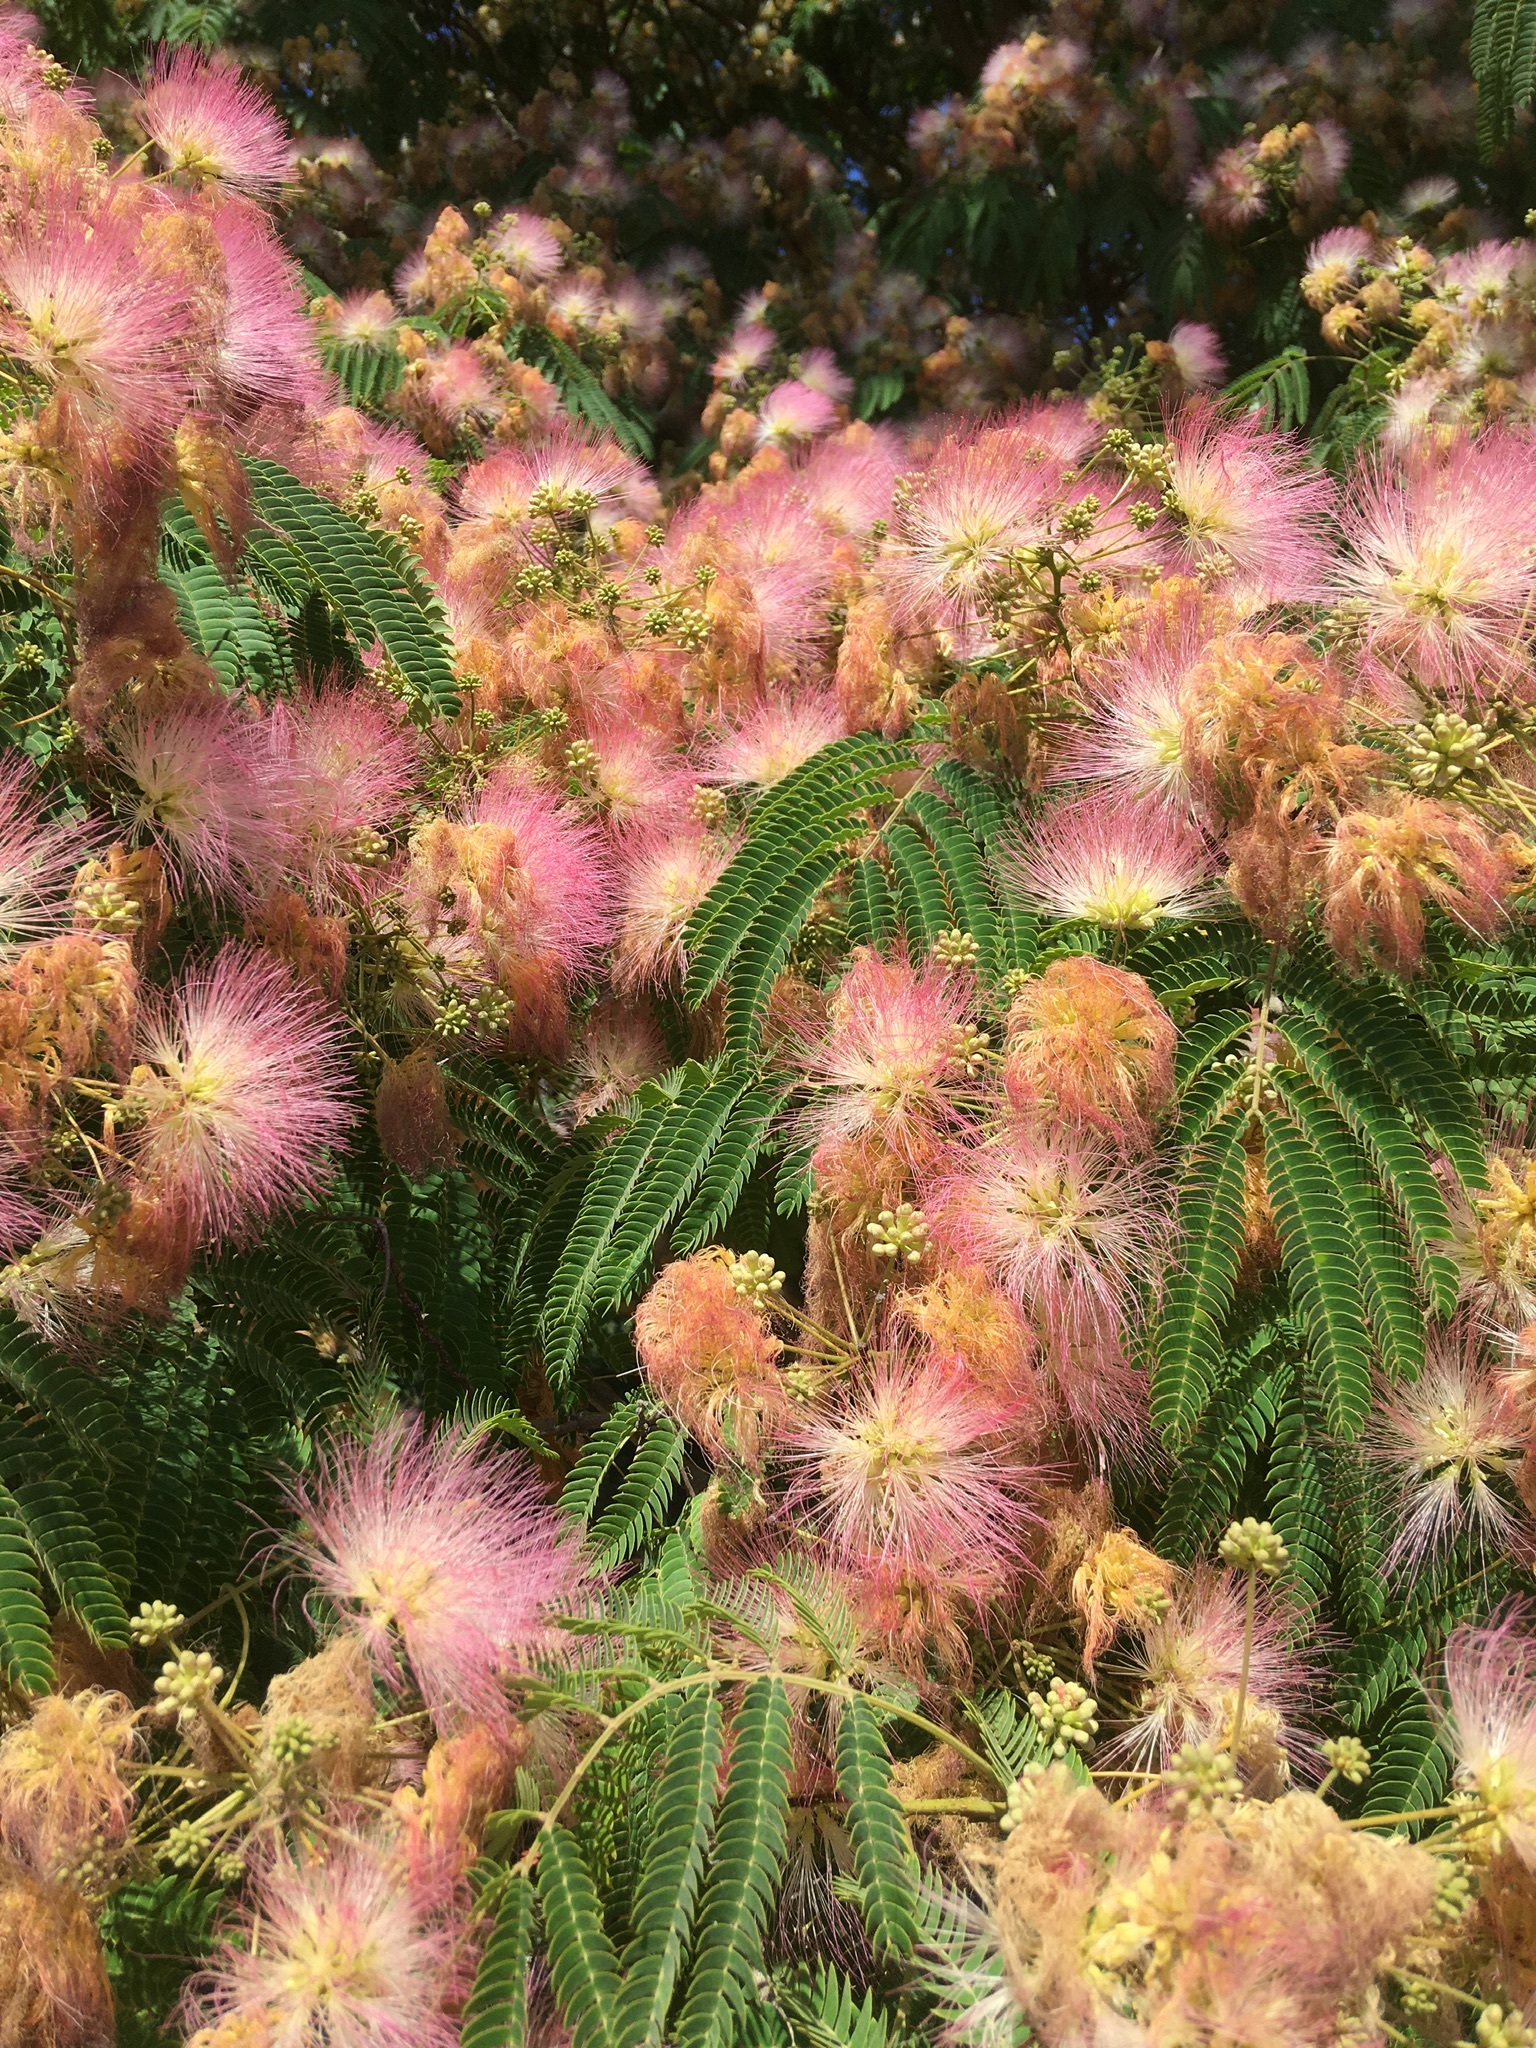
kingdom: Plantae
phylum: Tracheophyta
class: Magnoliopsida
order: Fabales
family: Fabaceae
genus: Albizia
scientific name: Albizia julibrissin
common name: Silktree
